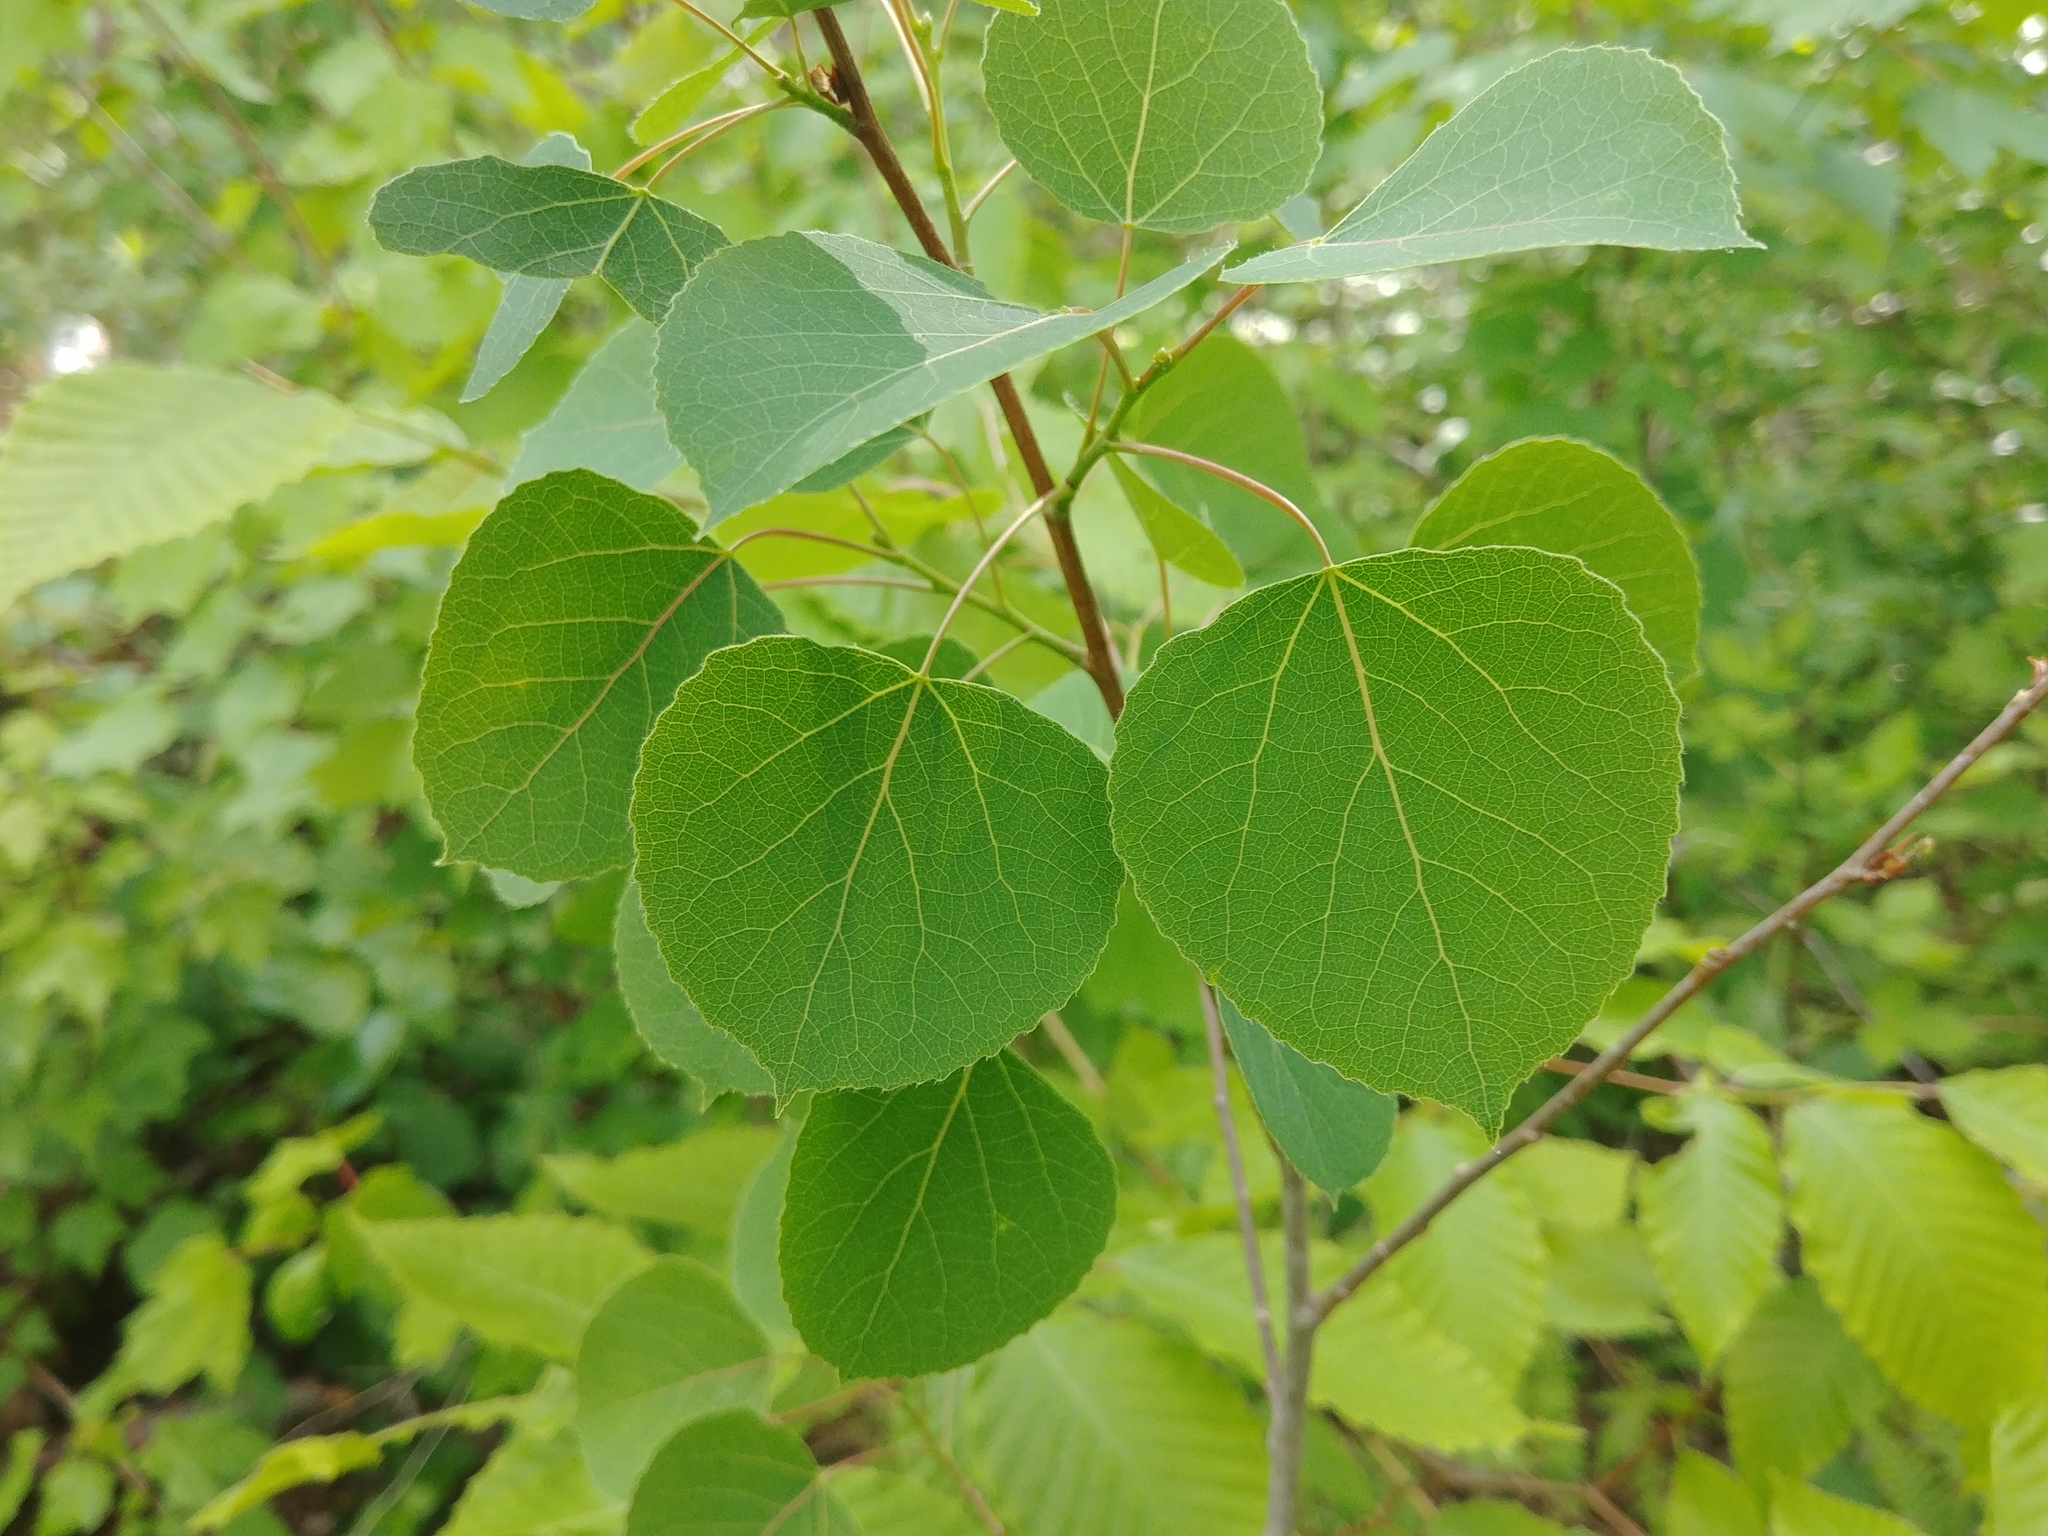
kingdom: Plantae
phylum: Tracheophyta
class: Magnoliopsida
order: Malpighiales
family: Salicaceae
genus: Populus
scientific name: Populus tremuloides
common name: Quaking aspen
